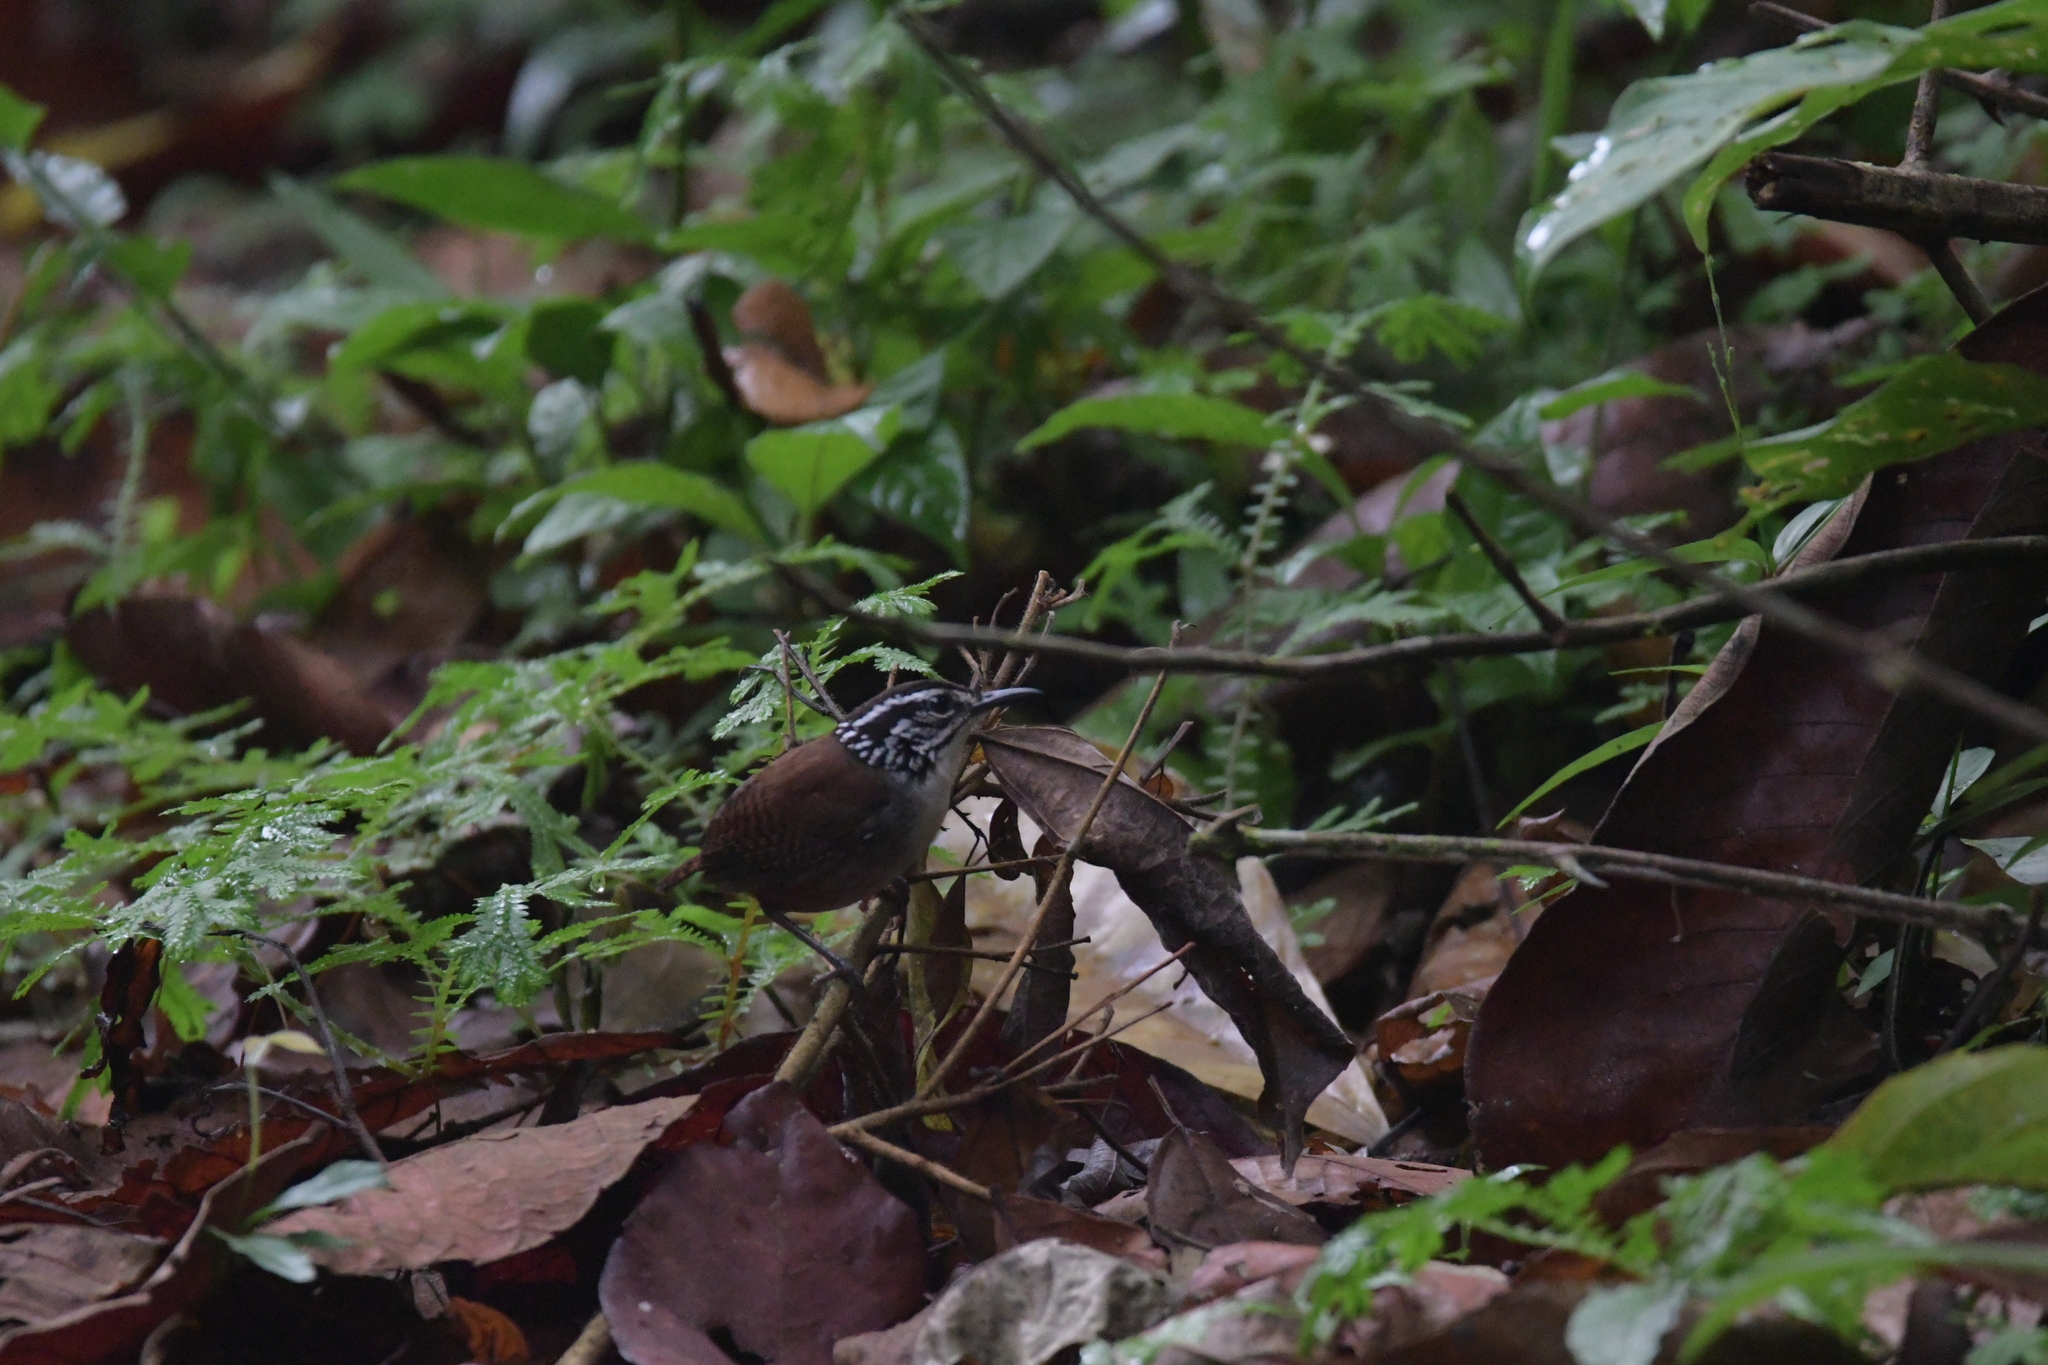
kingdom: Animalia
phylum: Chordata
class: Aves
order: Passeriformes
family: Troglodytidae
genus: Henicorhina
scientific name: Henicorhina leucosticta
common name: White-breasted wood-wren
